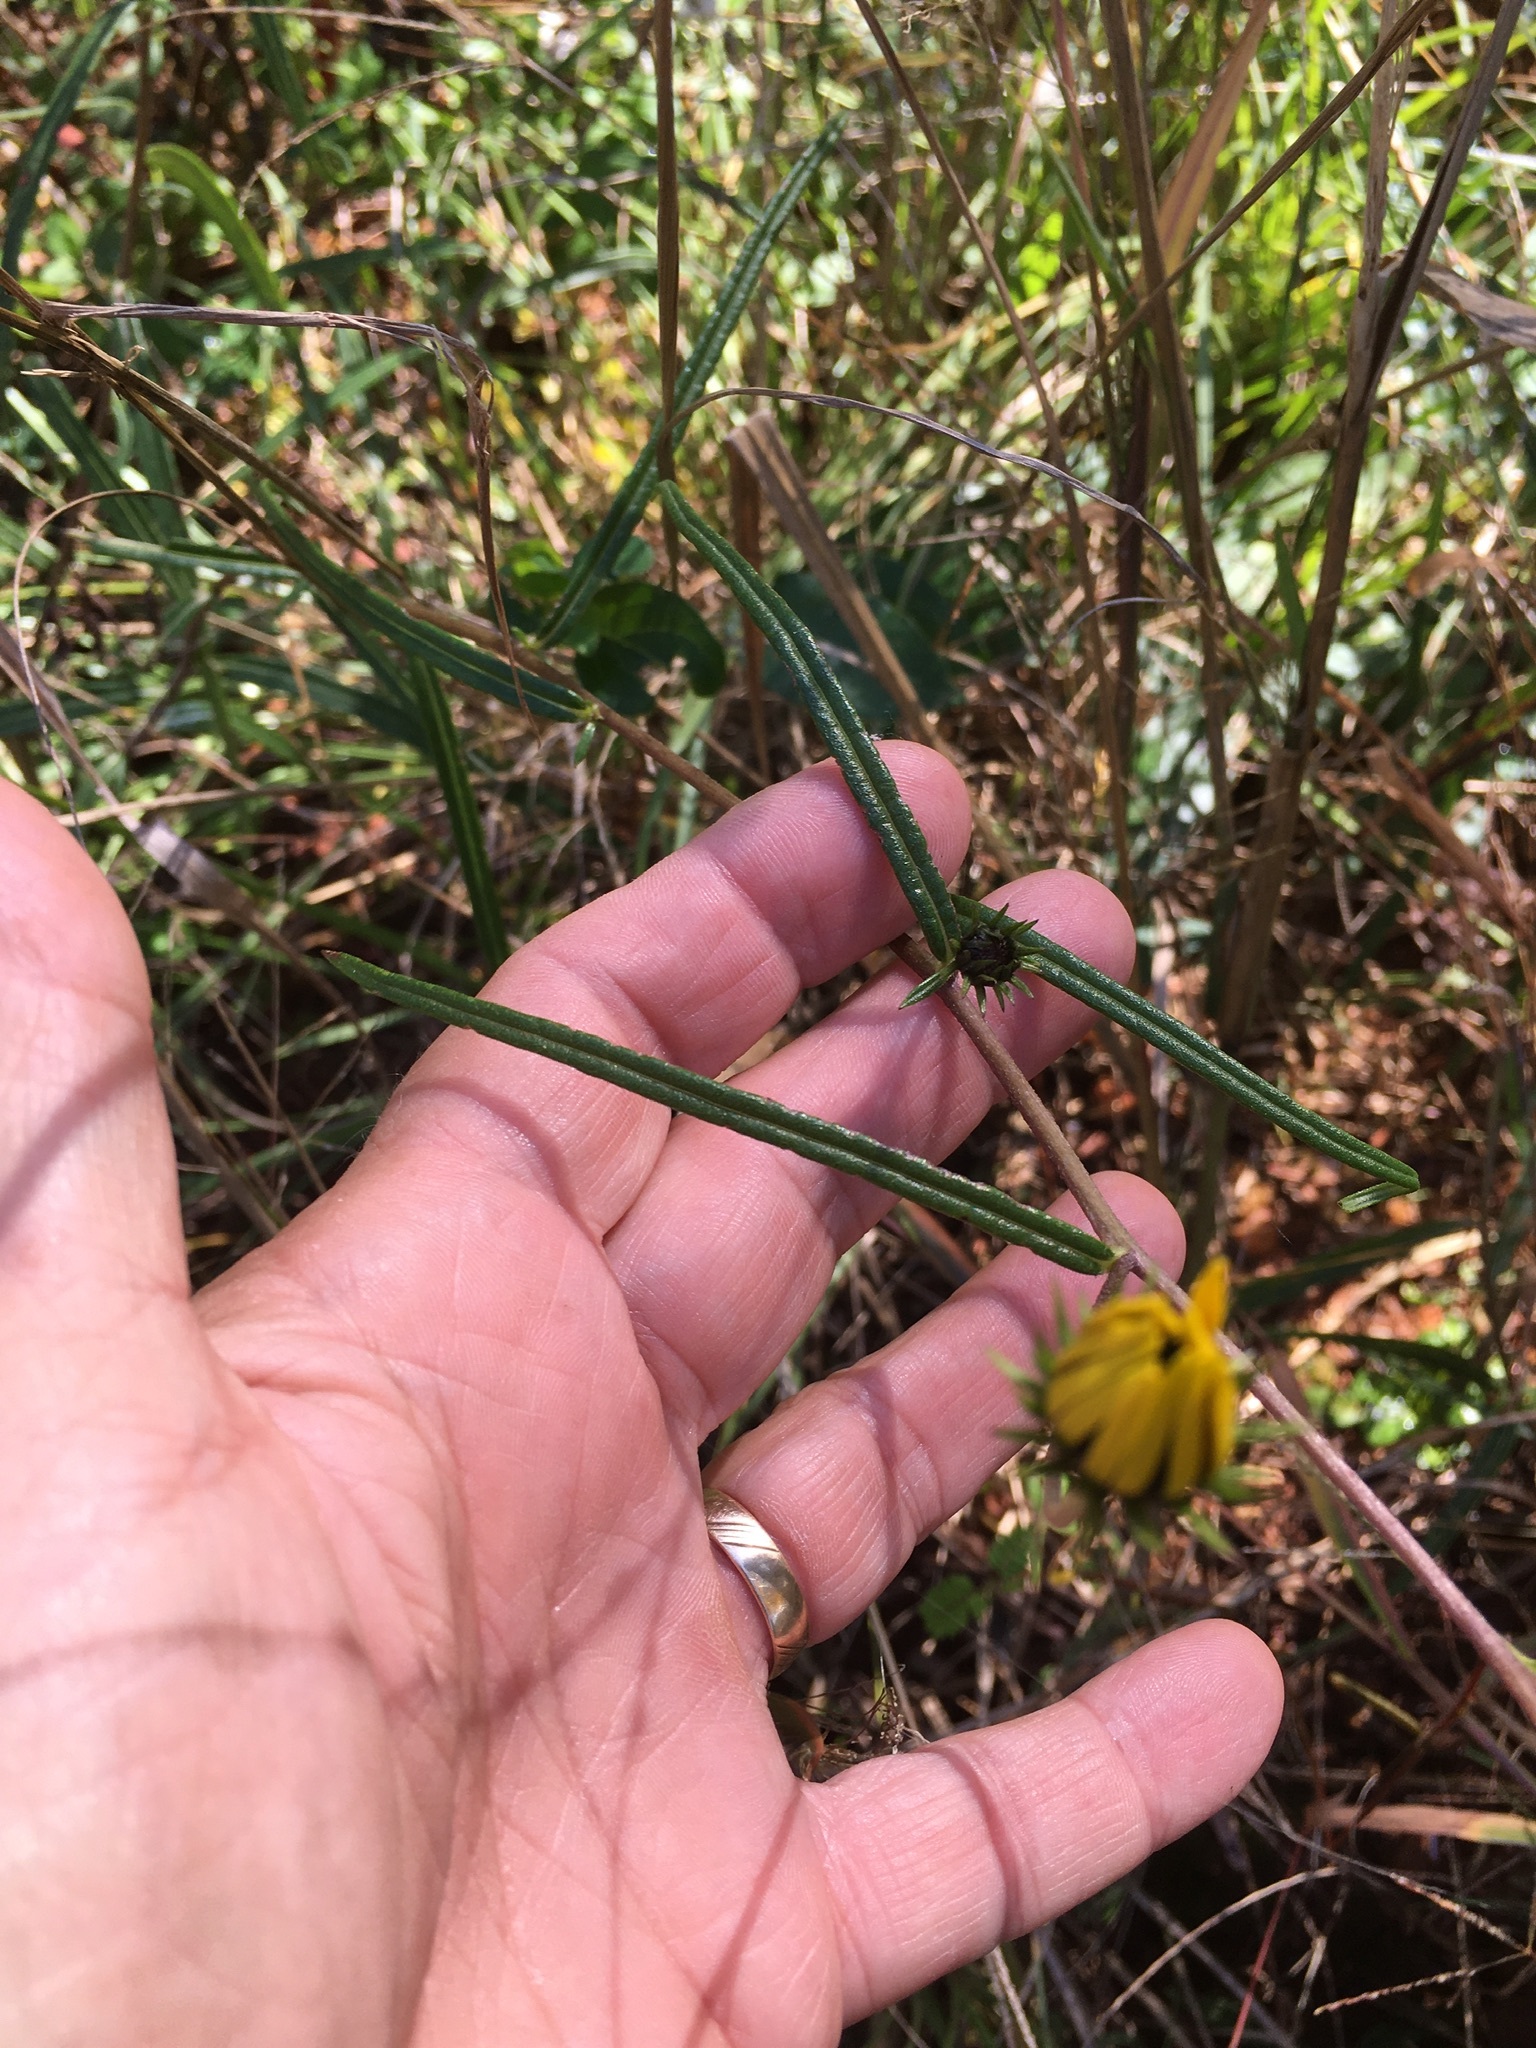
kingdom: Plantae
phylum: Tracheophyta
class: Magnoliopsida
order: Asterales
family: Asteraceae
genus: Helianthus
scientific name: Helianthus angustifolius
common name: Swamp sunflower
